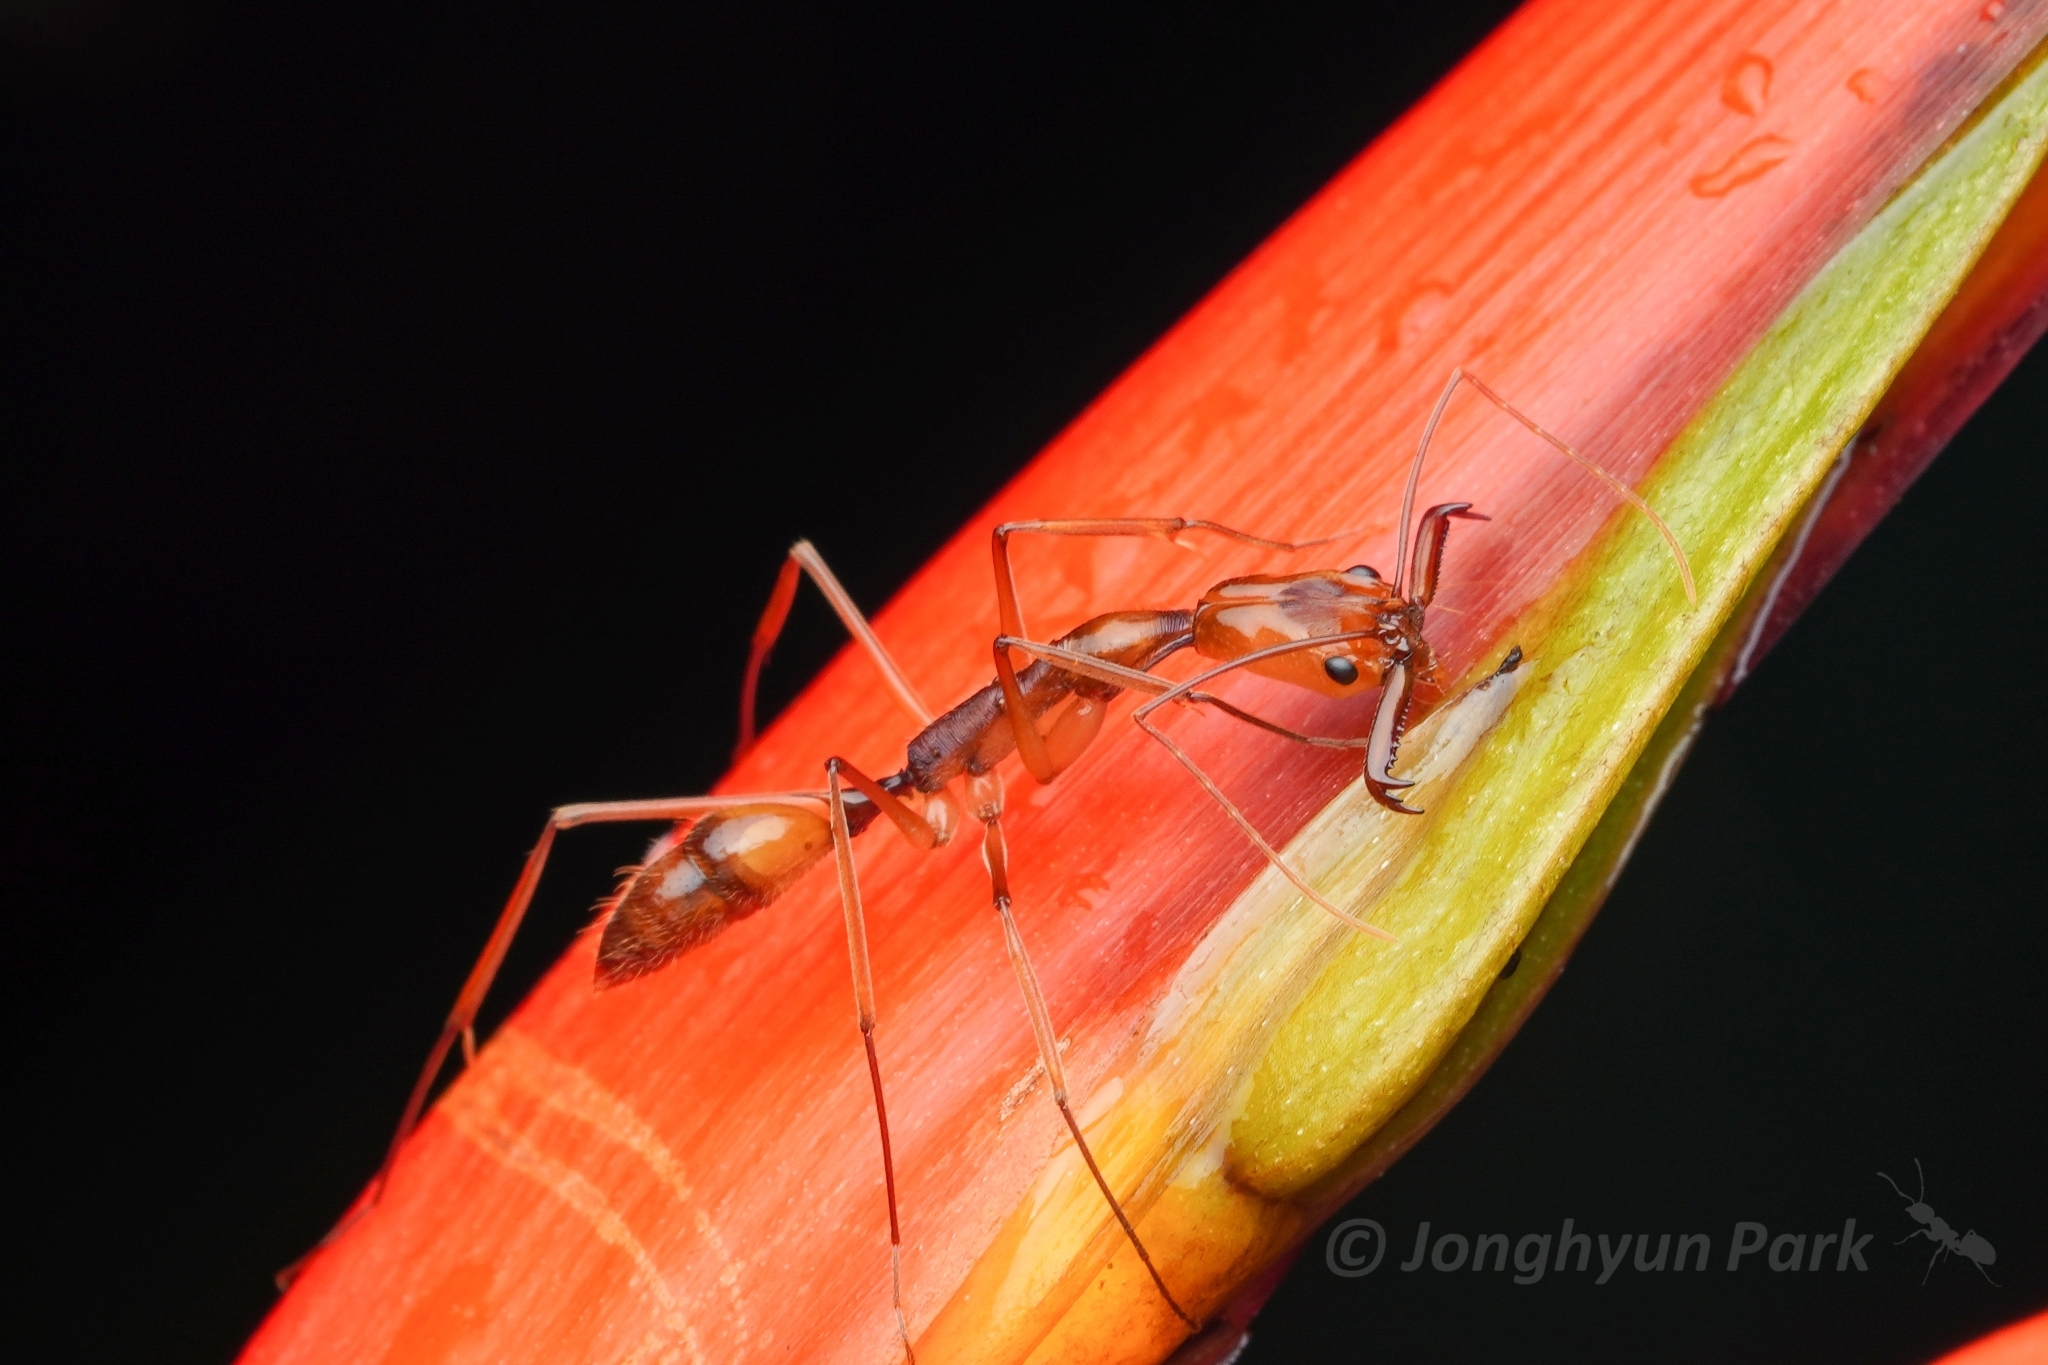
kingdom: Animalia
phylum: Arthropoda
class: Insecta
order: Hymenoptera
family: Formicidae
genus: Odontomachus
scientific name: Odontomachus hastatus
